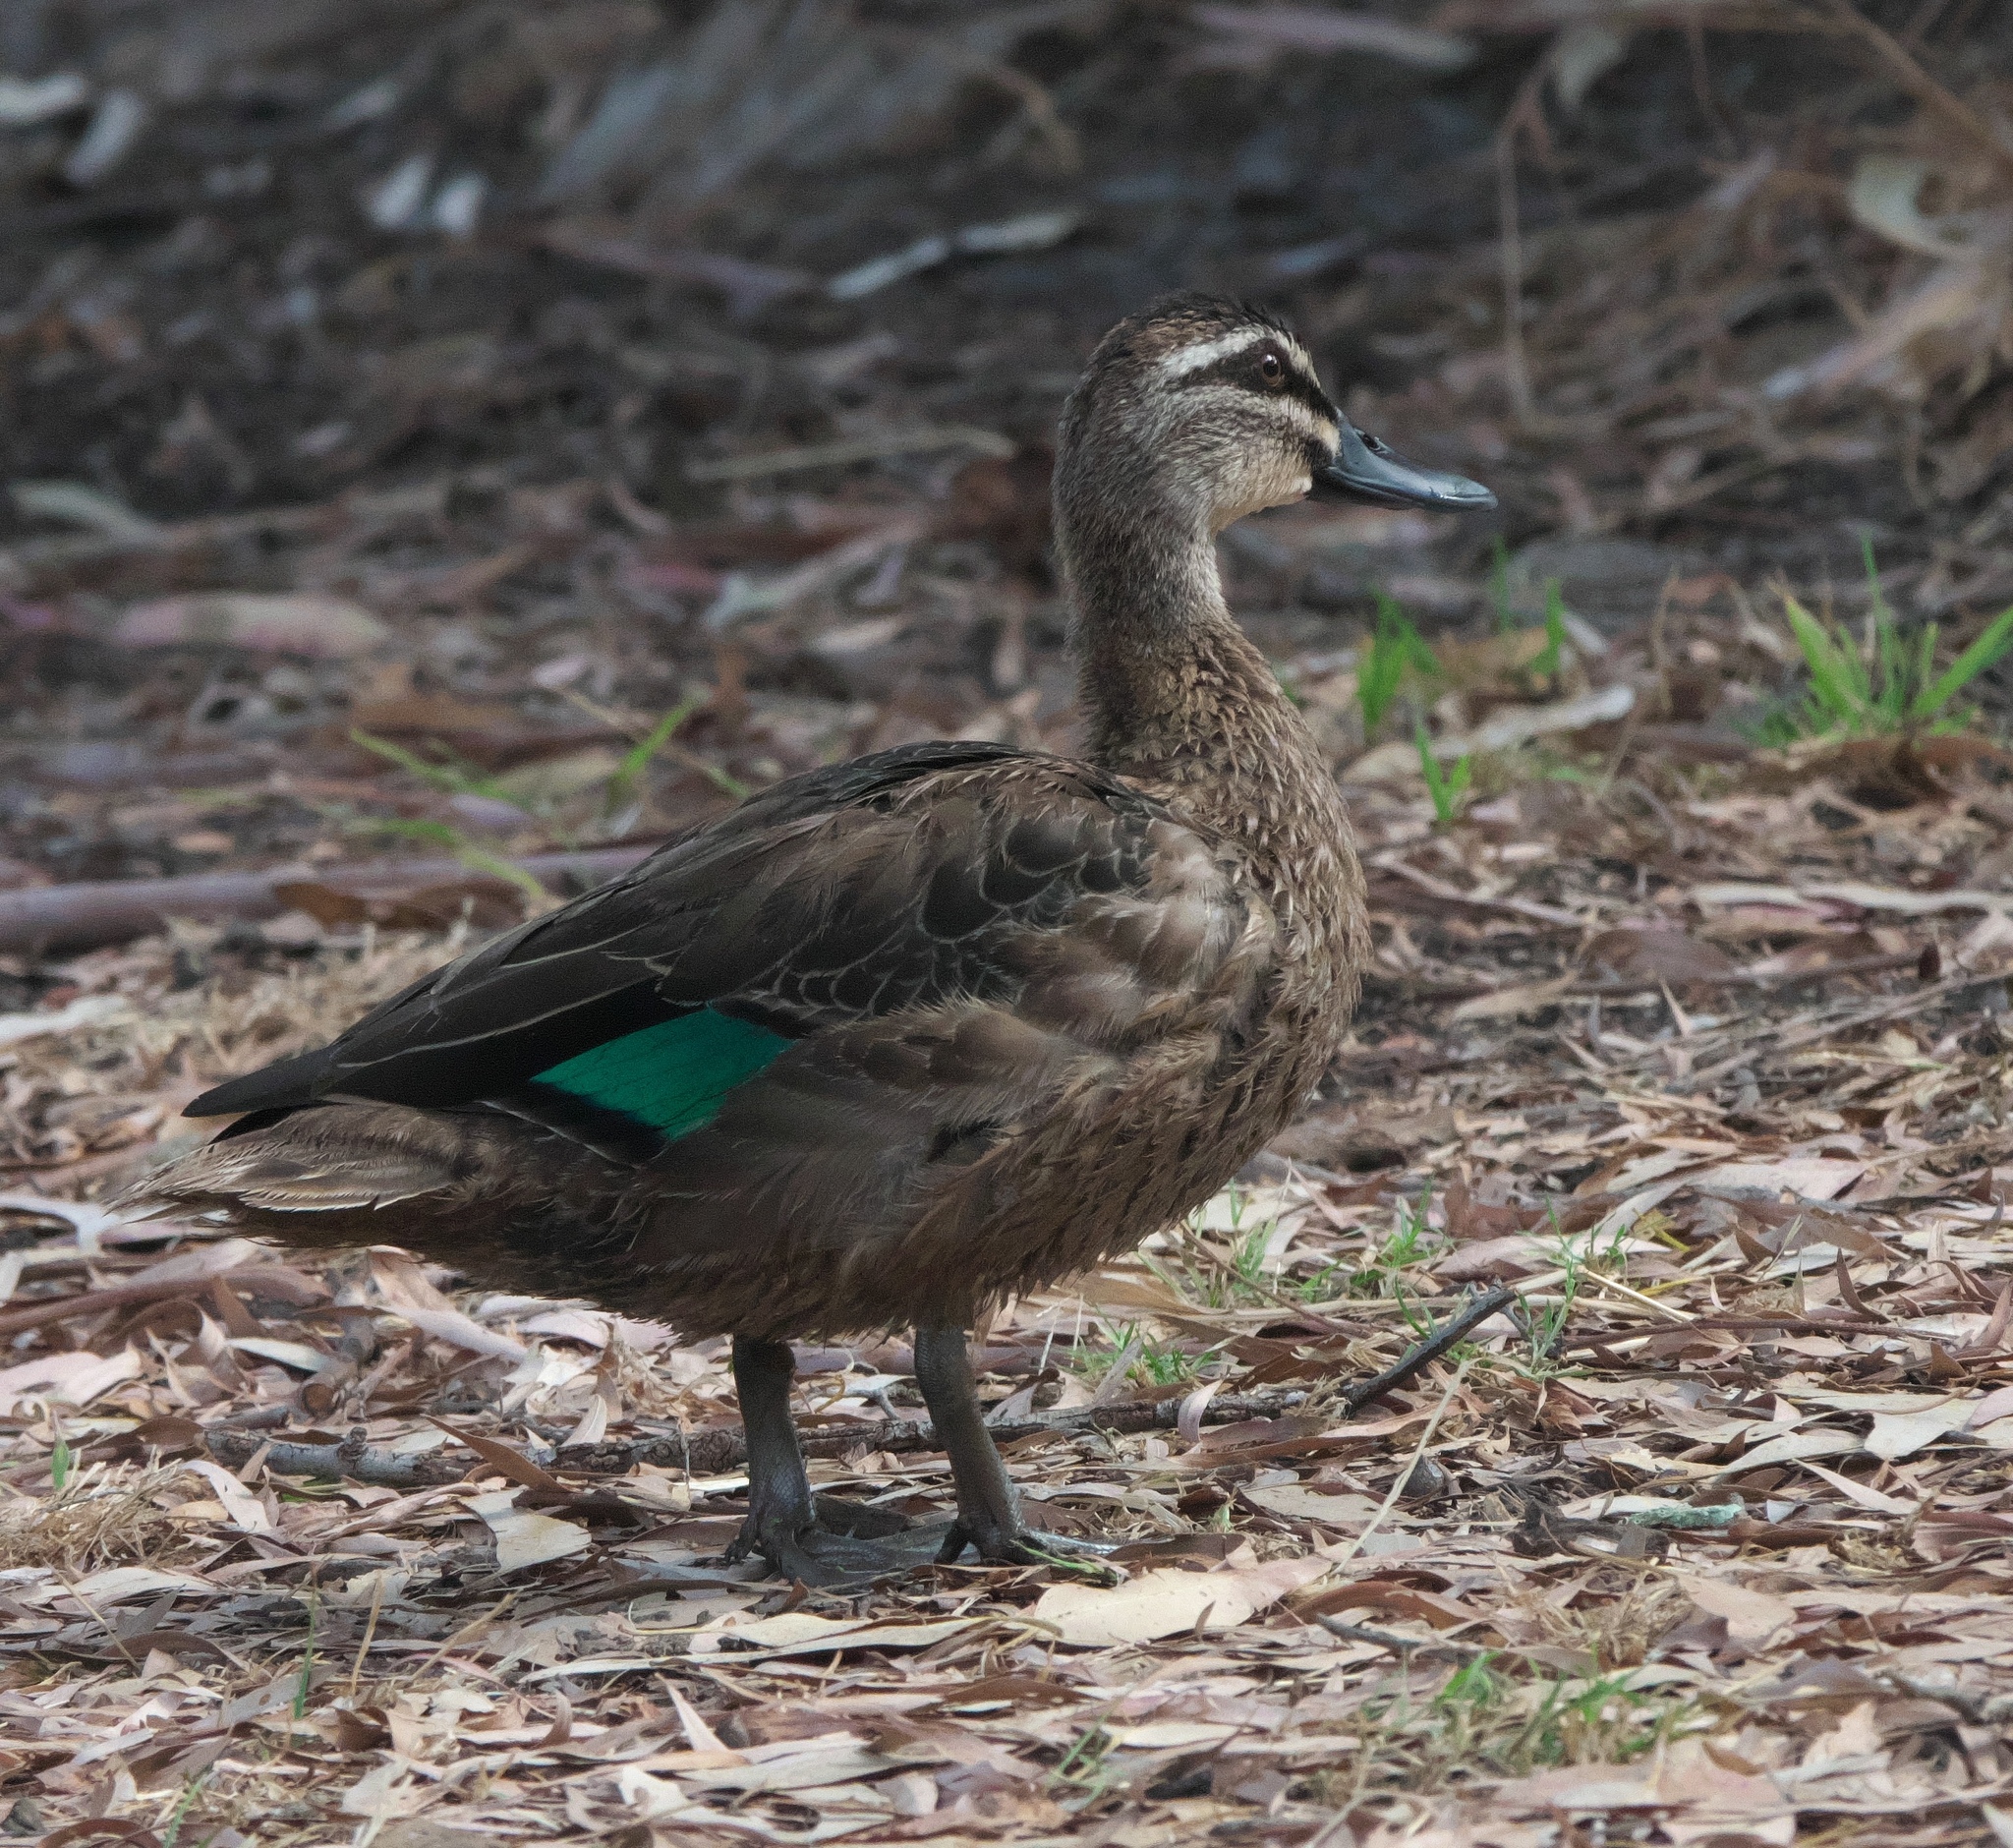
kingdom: Animalia
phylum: Chordata
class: Aves
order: Anseriformes
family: Anatidae
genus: Anas
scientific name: Anas superciliosa
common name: Pacific black duck
